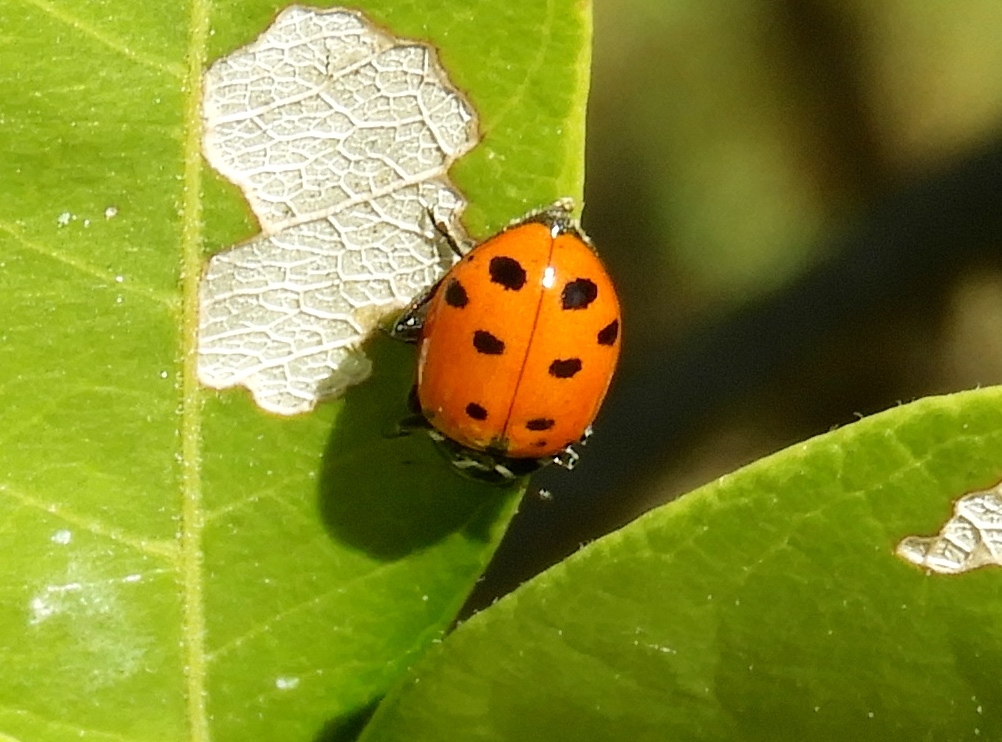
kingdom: Animalia
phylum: Arthropoda
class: Insecta
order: Coleoptera
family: Coccinellidae
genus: Hippodamia
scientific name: Hippodamia convergens
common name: Convergent lady beetle
